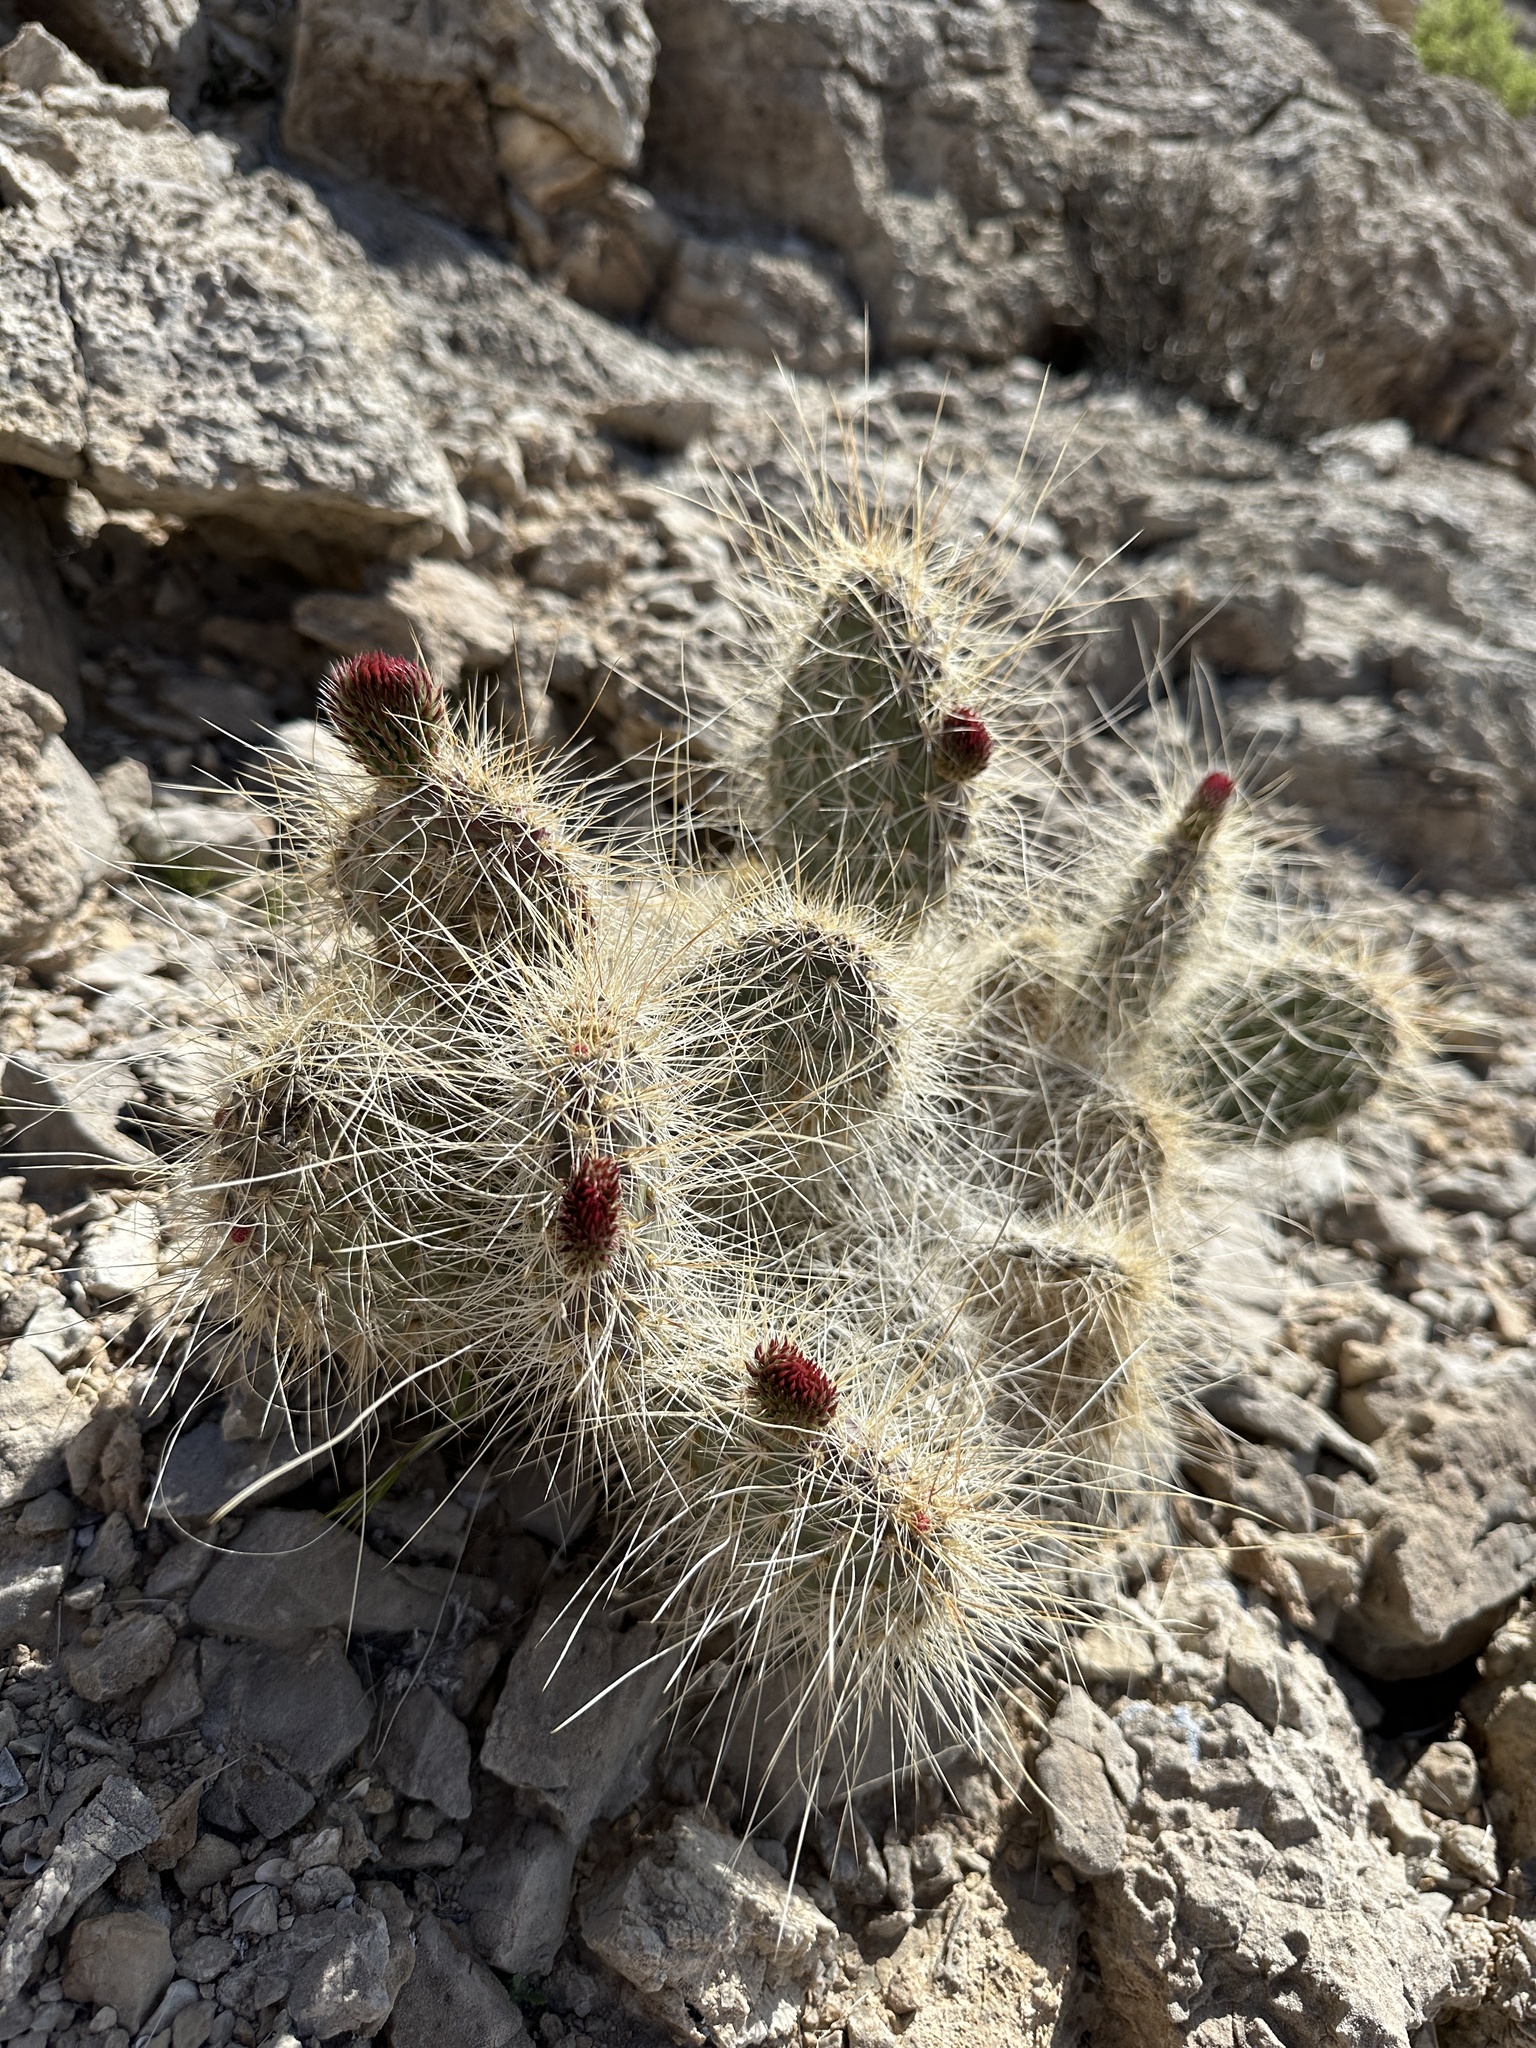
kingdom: Plantae
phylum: Tracheophyta
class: Magnoliopsida
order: Caryophyllales
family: Cactaceae
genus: Opuntia
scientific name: Opuntia polyacantha
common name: Plains prickly-pear
